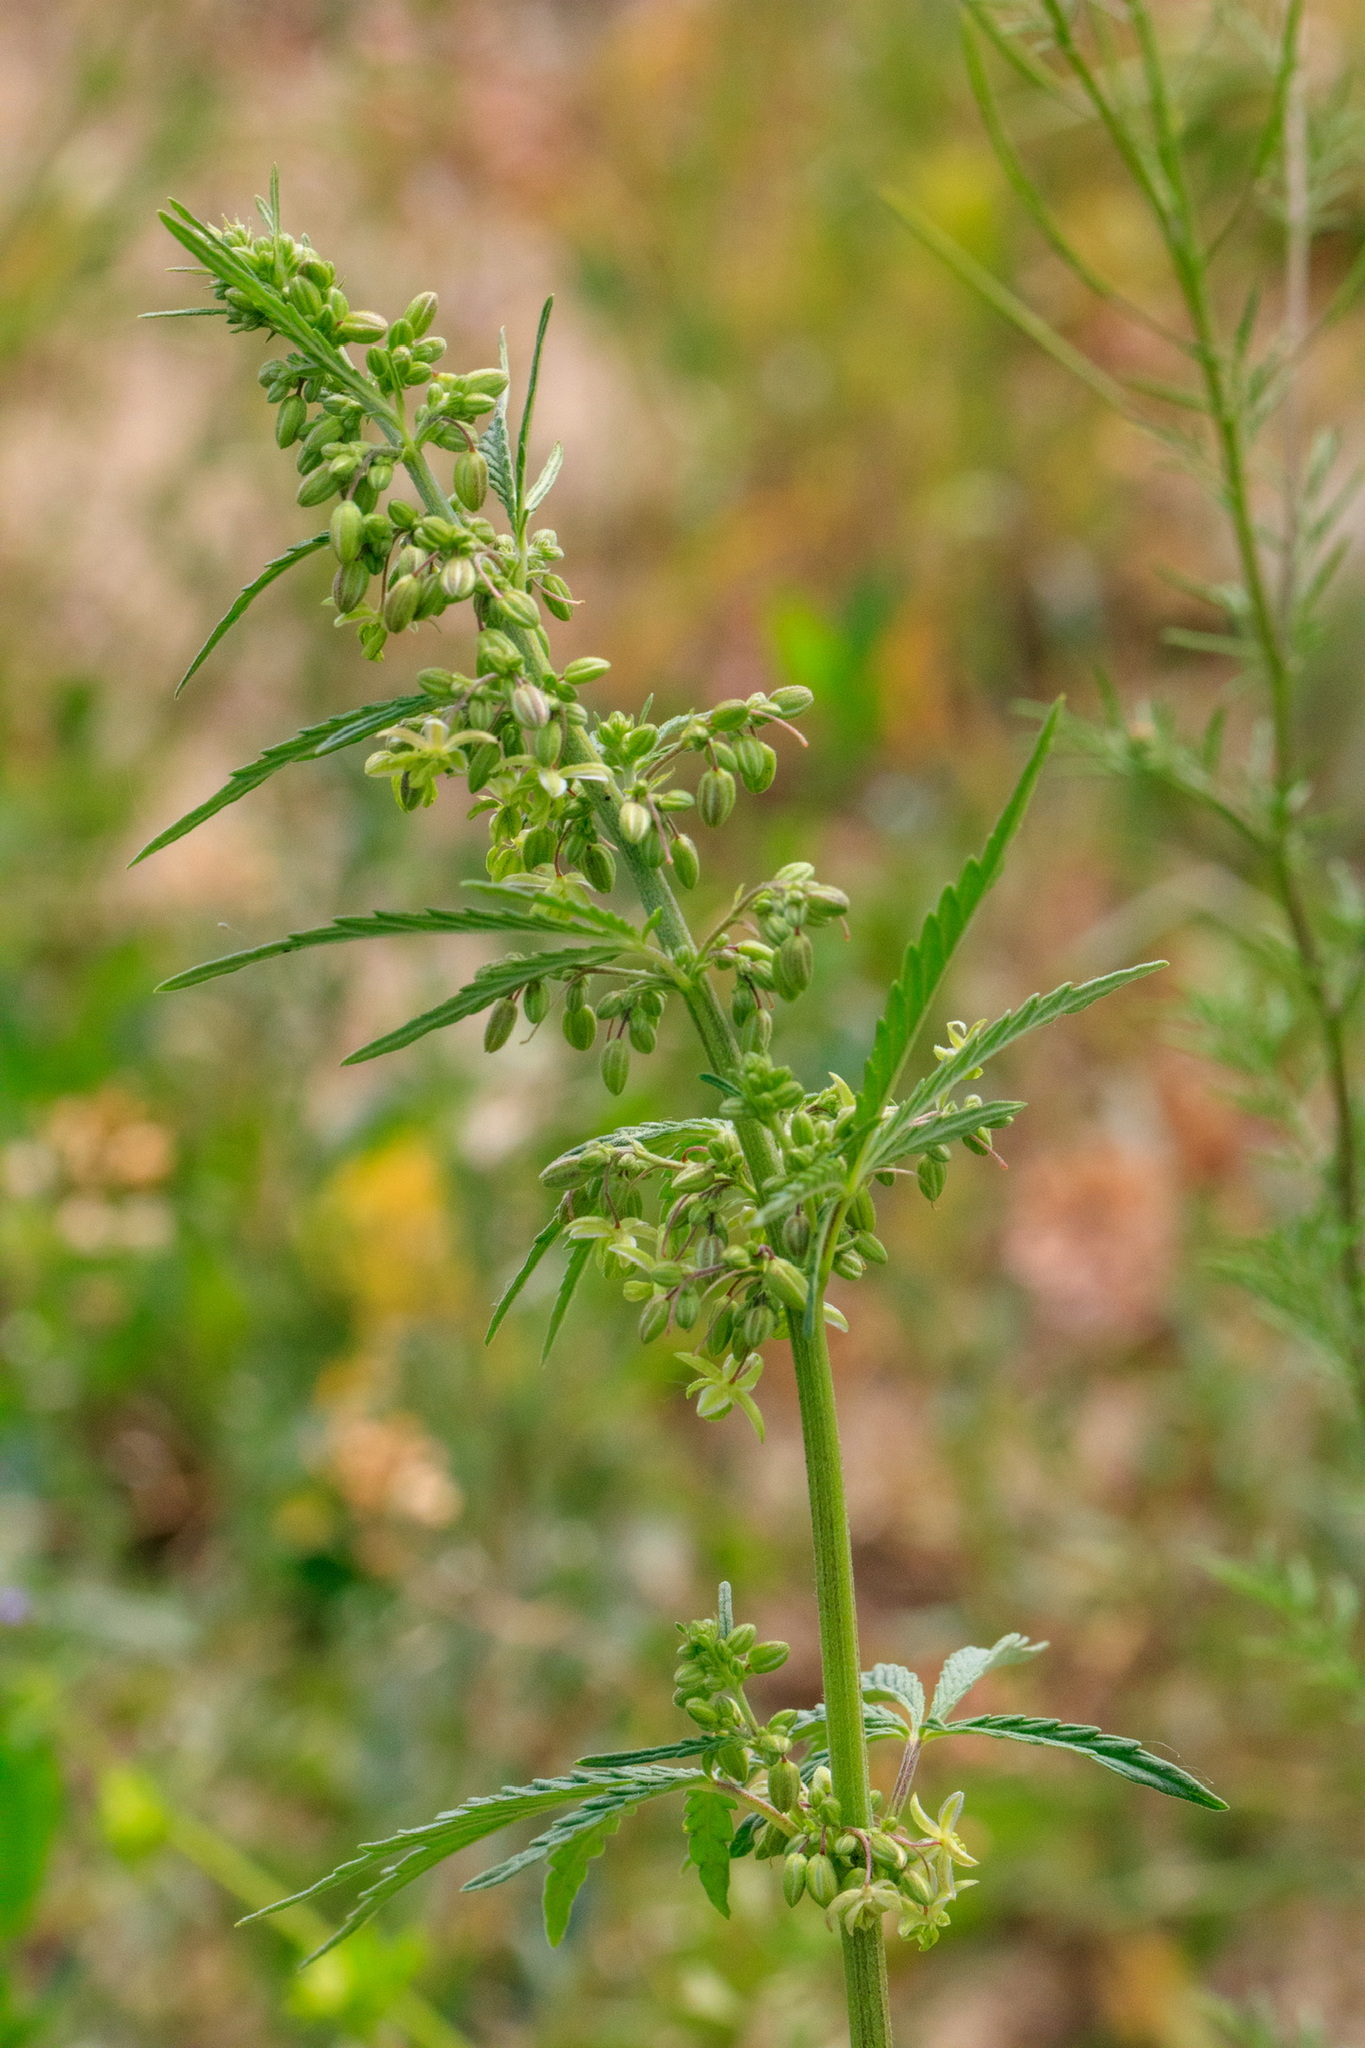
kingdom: Plantae
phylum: Tracheophyta
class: Magnoliopsida
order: Rosales
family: Cannabaceae
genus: Cannabis
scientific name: Cannabis sativa
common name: Hemp
